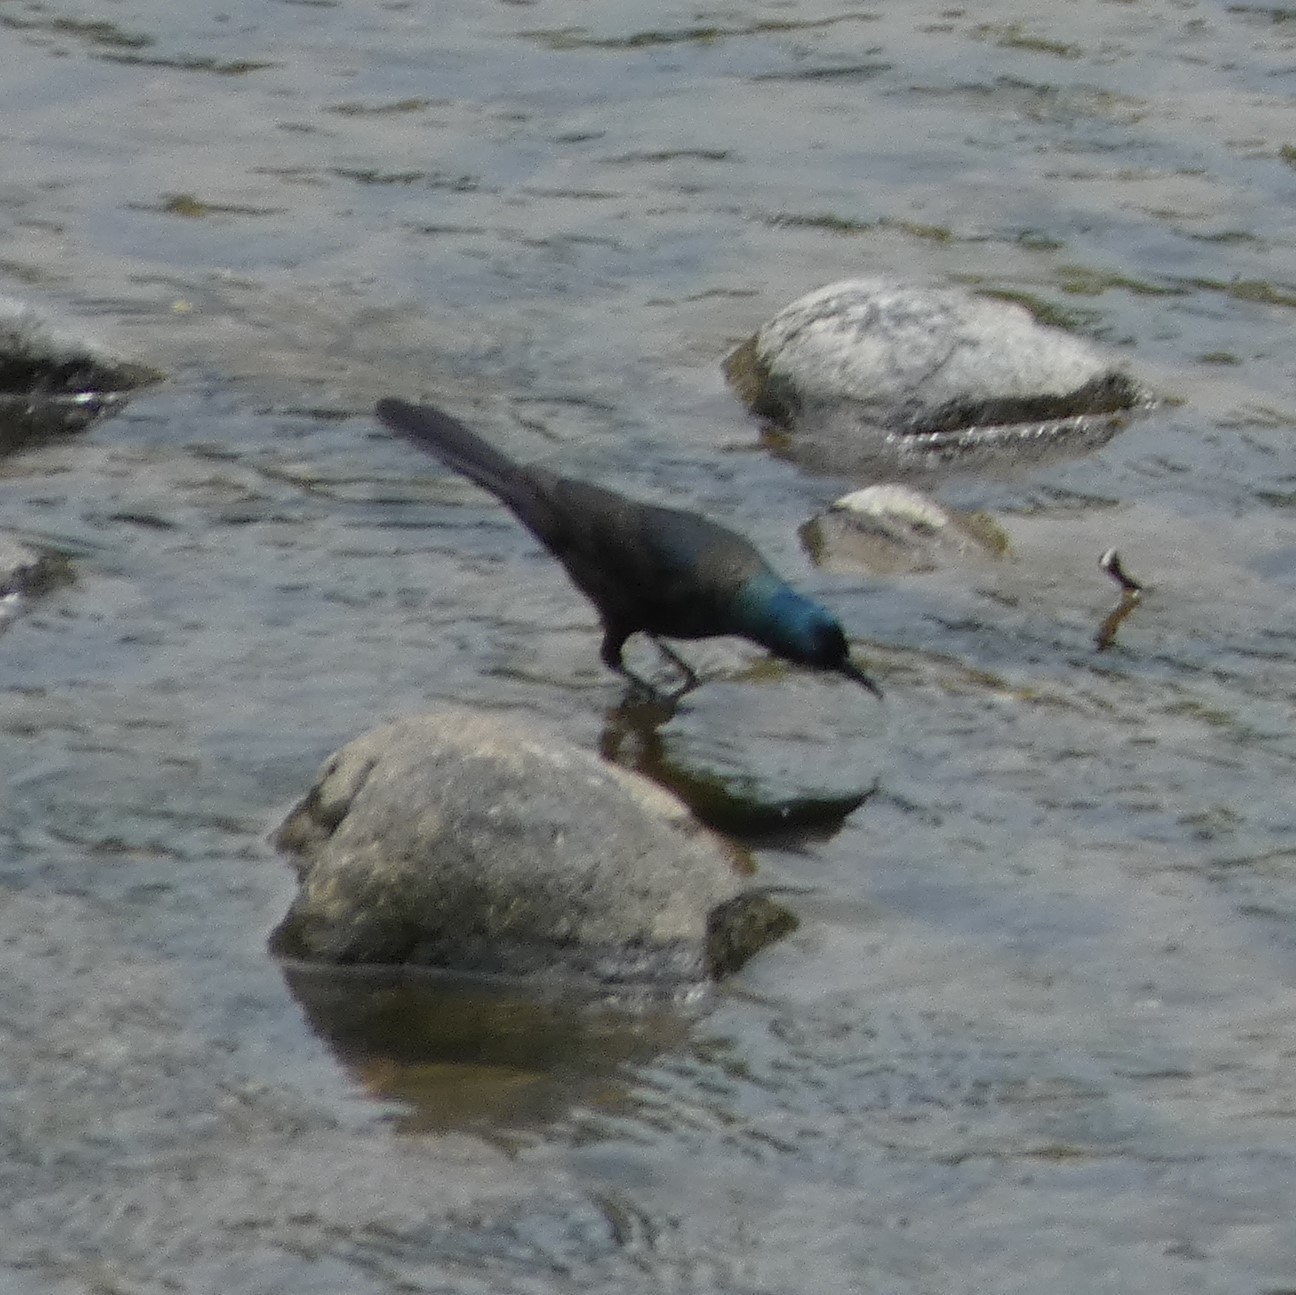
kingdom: Animalia
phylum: Chordata
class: Aves
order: Passeriformes
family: Icteridae
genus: Quiscalus
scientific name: Quiscalus quiscula
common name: Common grackle
